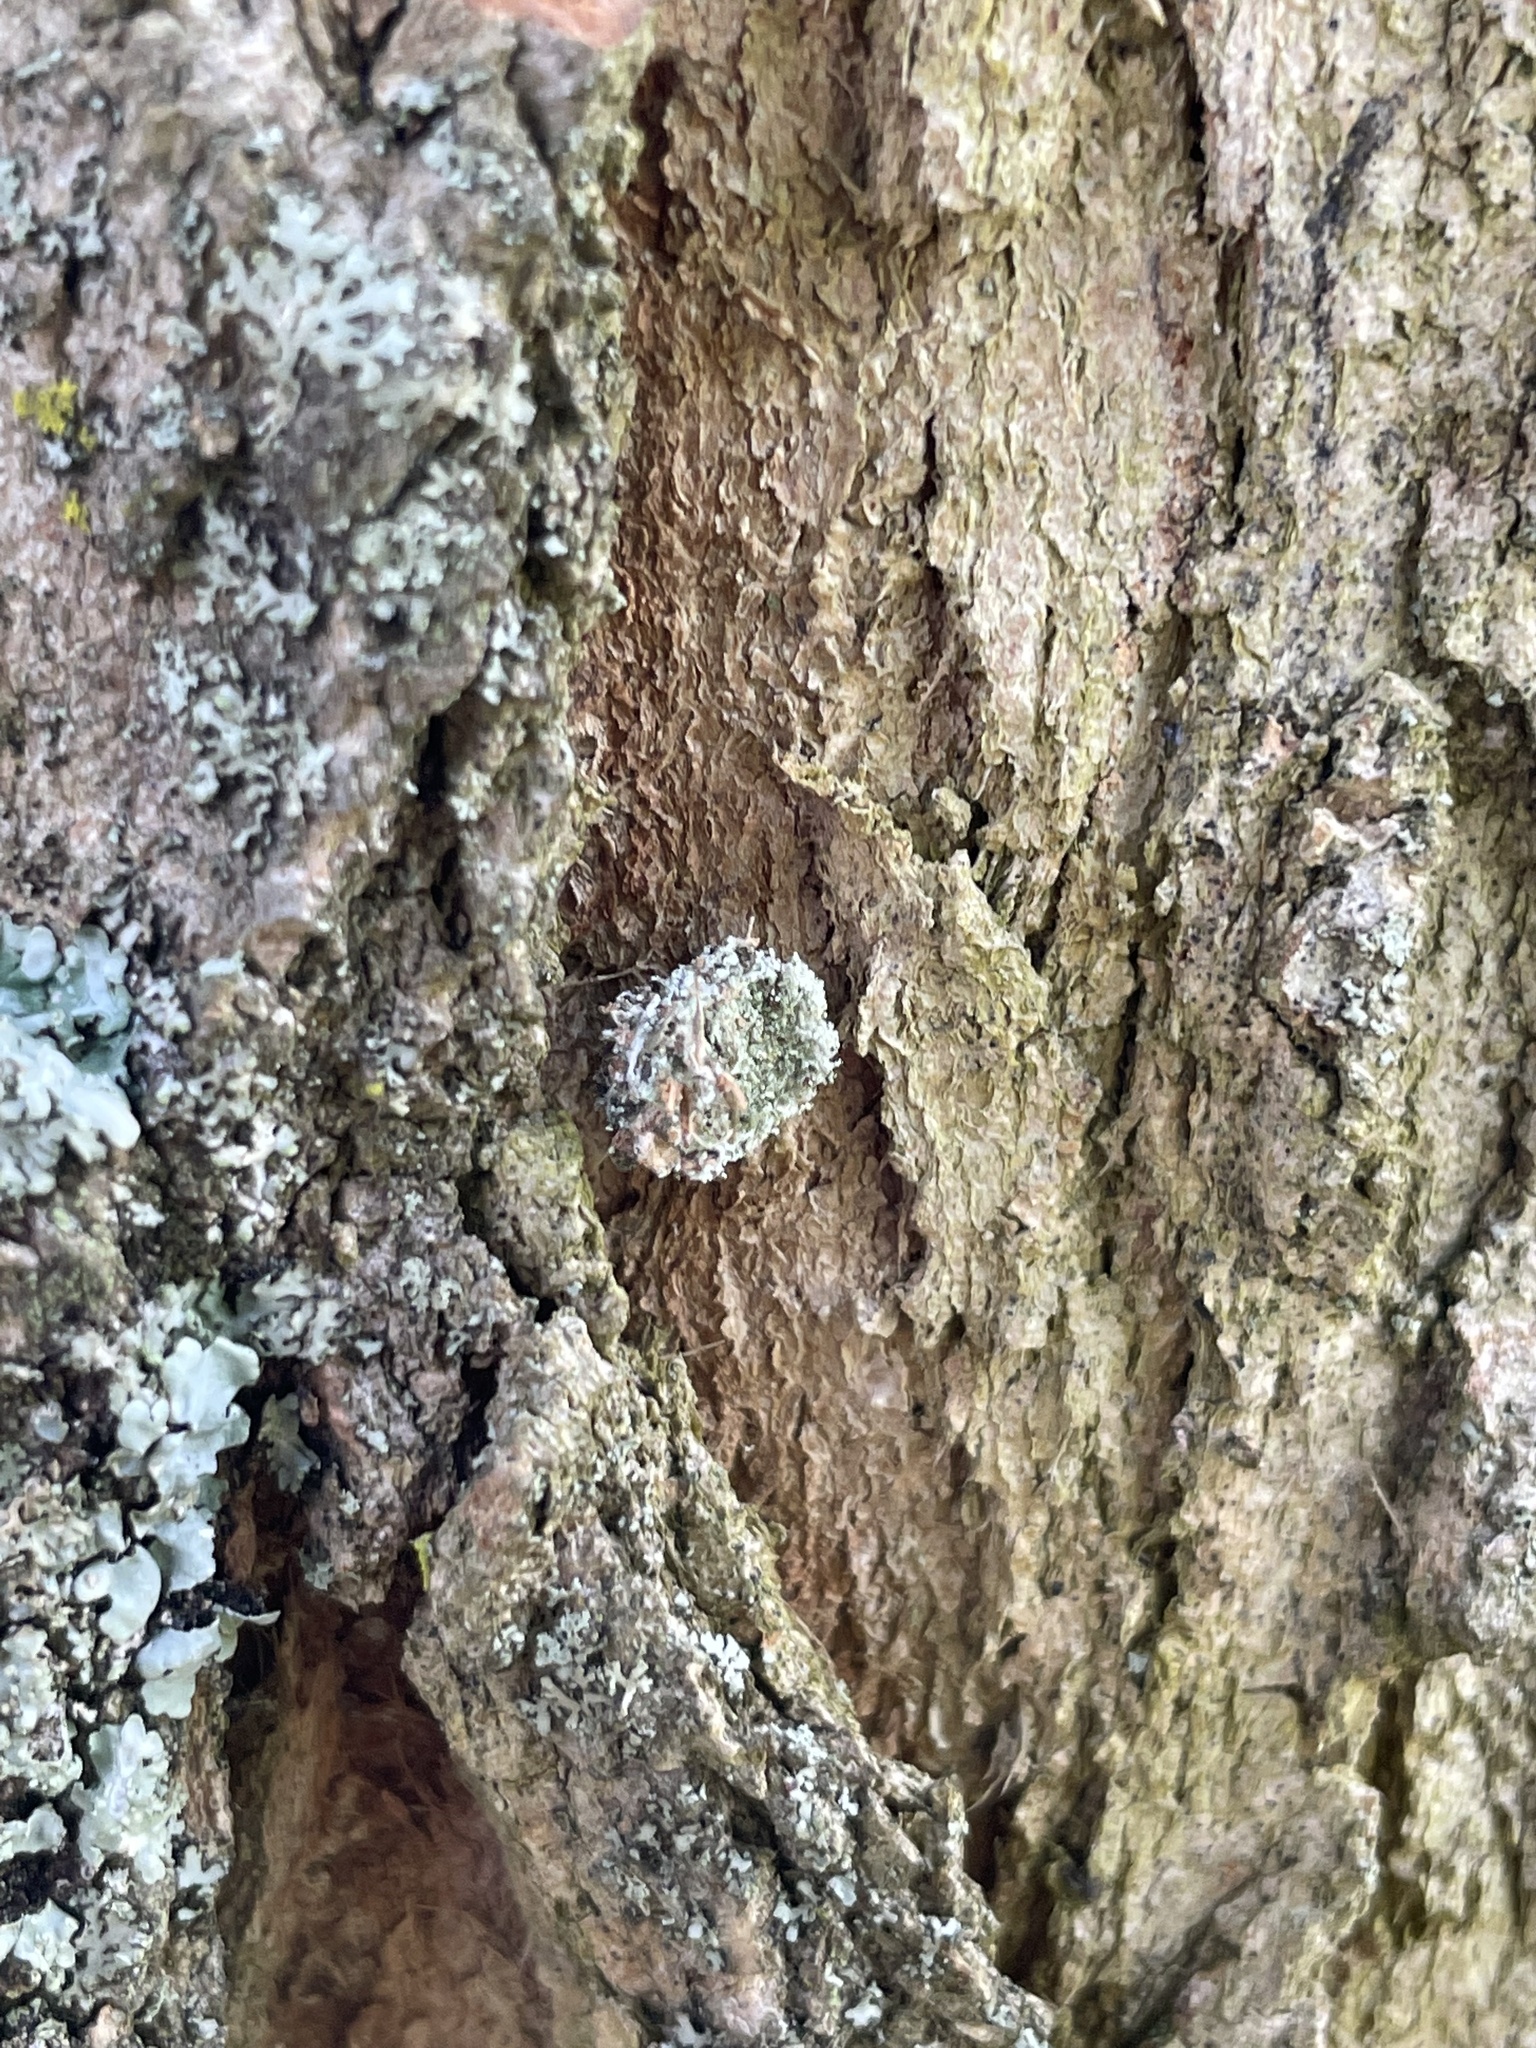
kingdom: Animalia
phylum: Arthropoda
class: Insecta
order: Neuroptera
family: Chrysopidae
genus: Leucochrysa
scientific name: Leucochrysa pavida
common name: Lichen-carrying green lacewing
